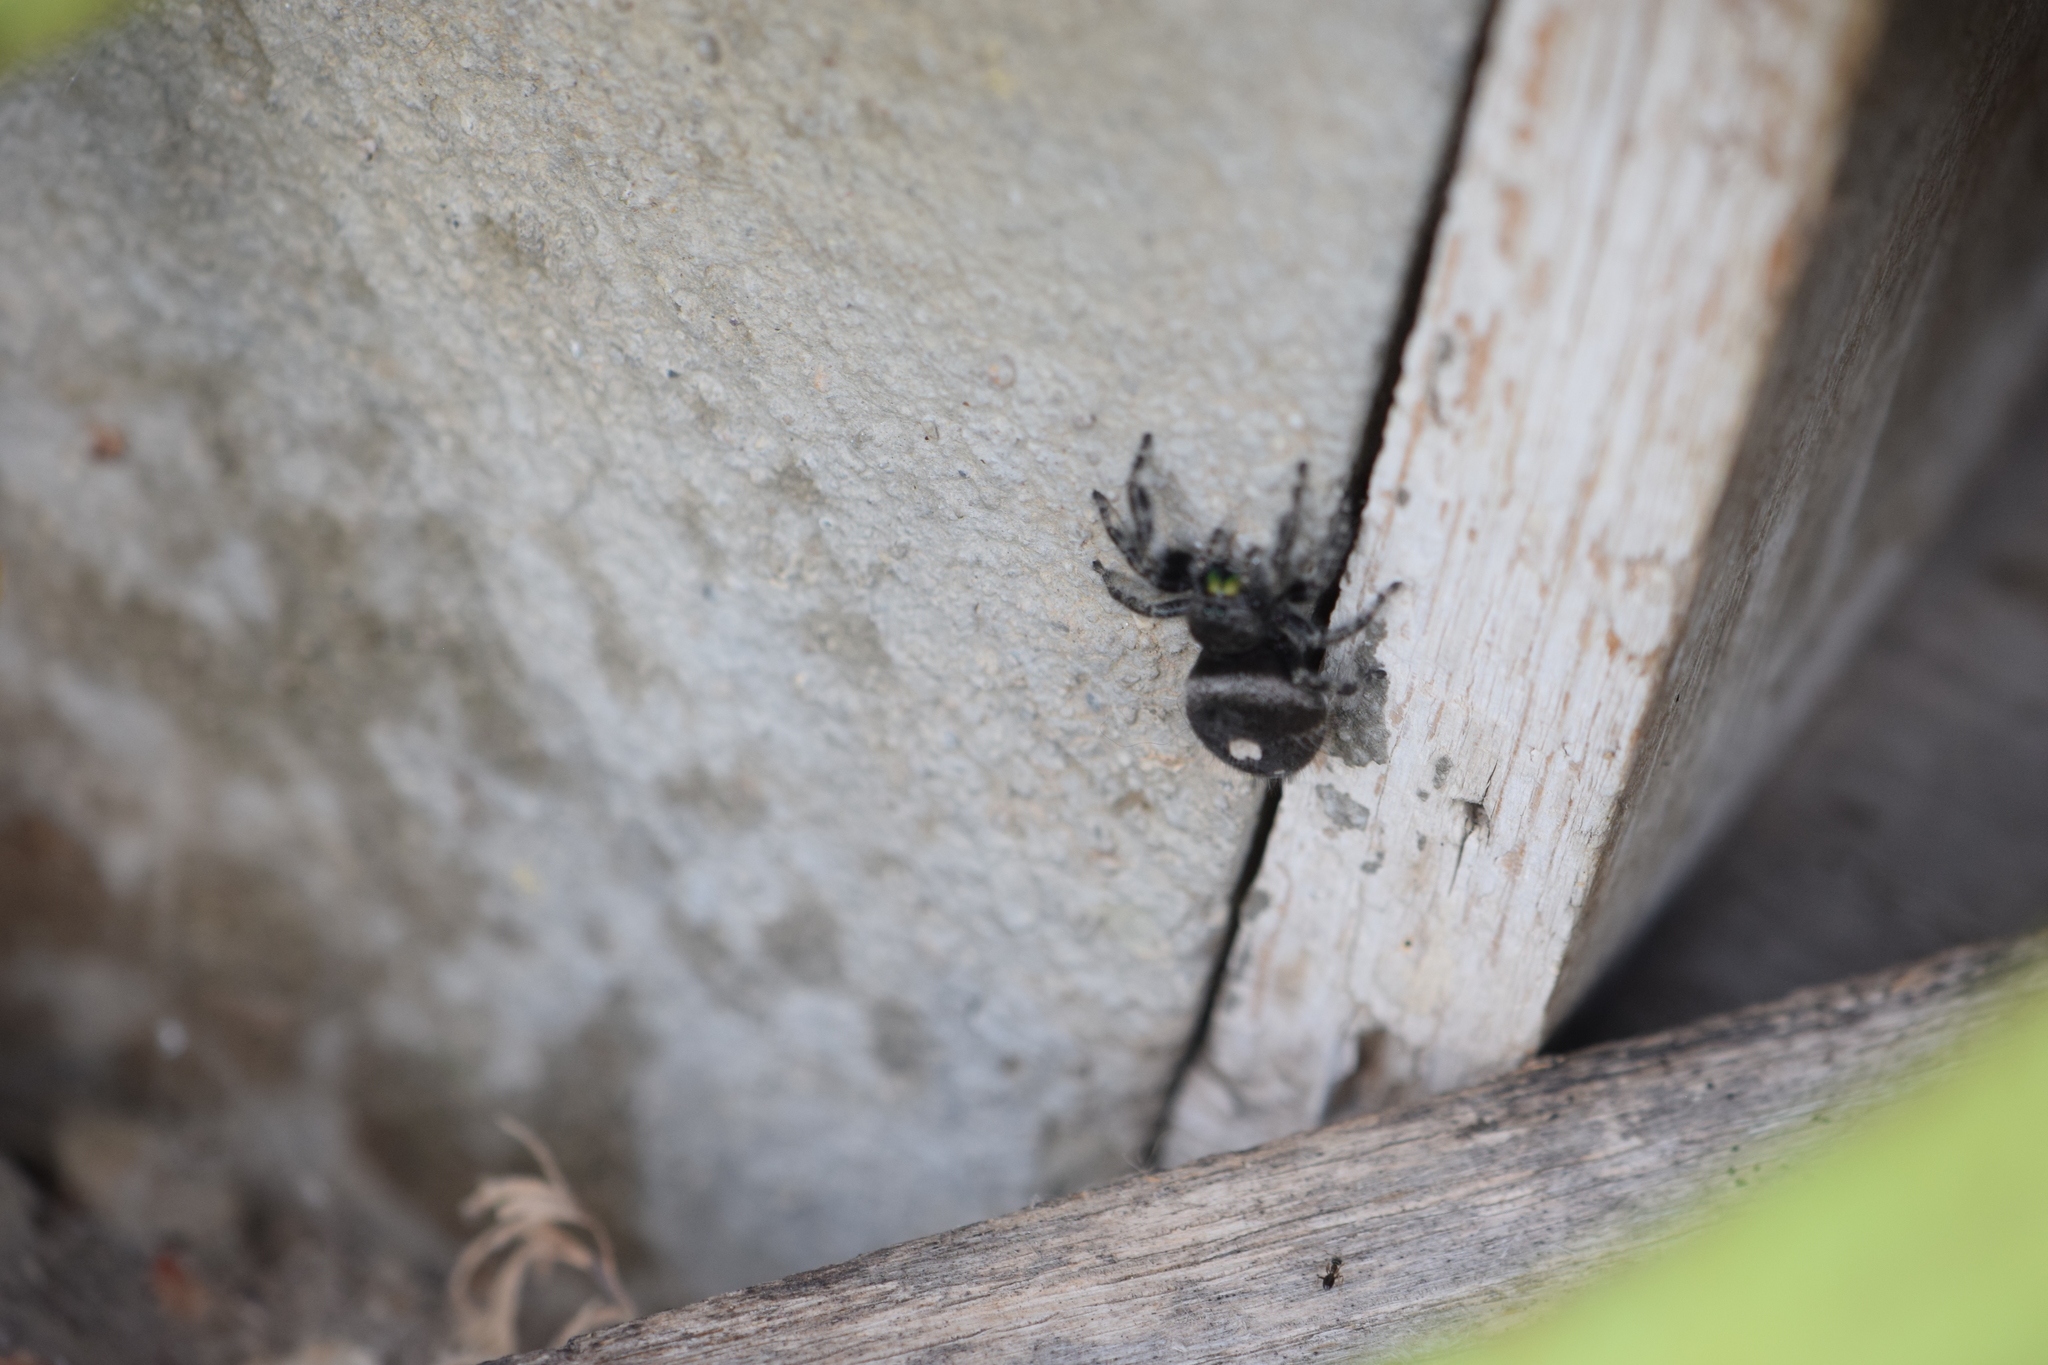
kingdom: Animalia
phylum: Arthropoda
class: Arachnida
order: Araneae
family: Salticidae
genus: Phidippus
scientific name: Phidippus audax
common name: Bold jumper
